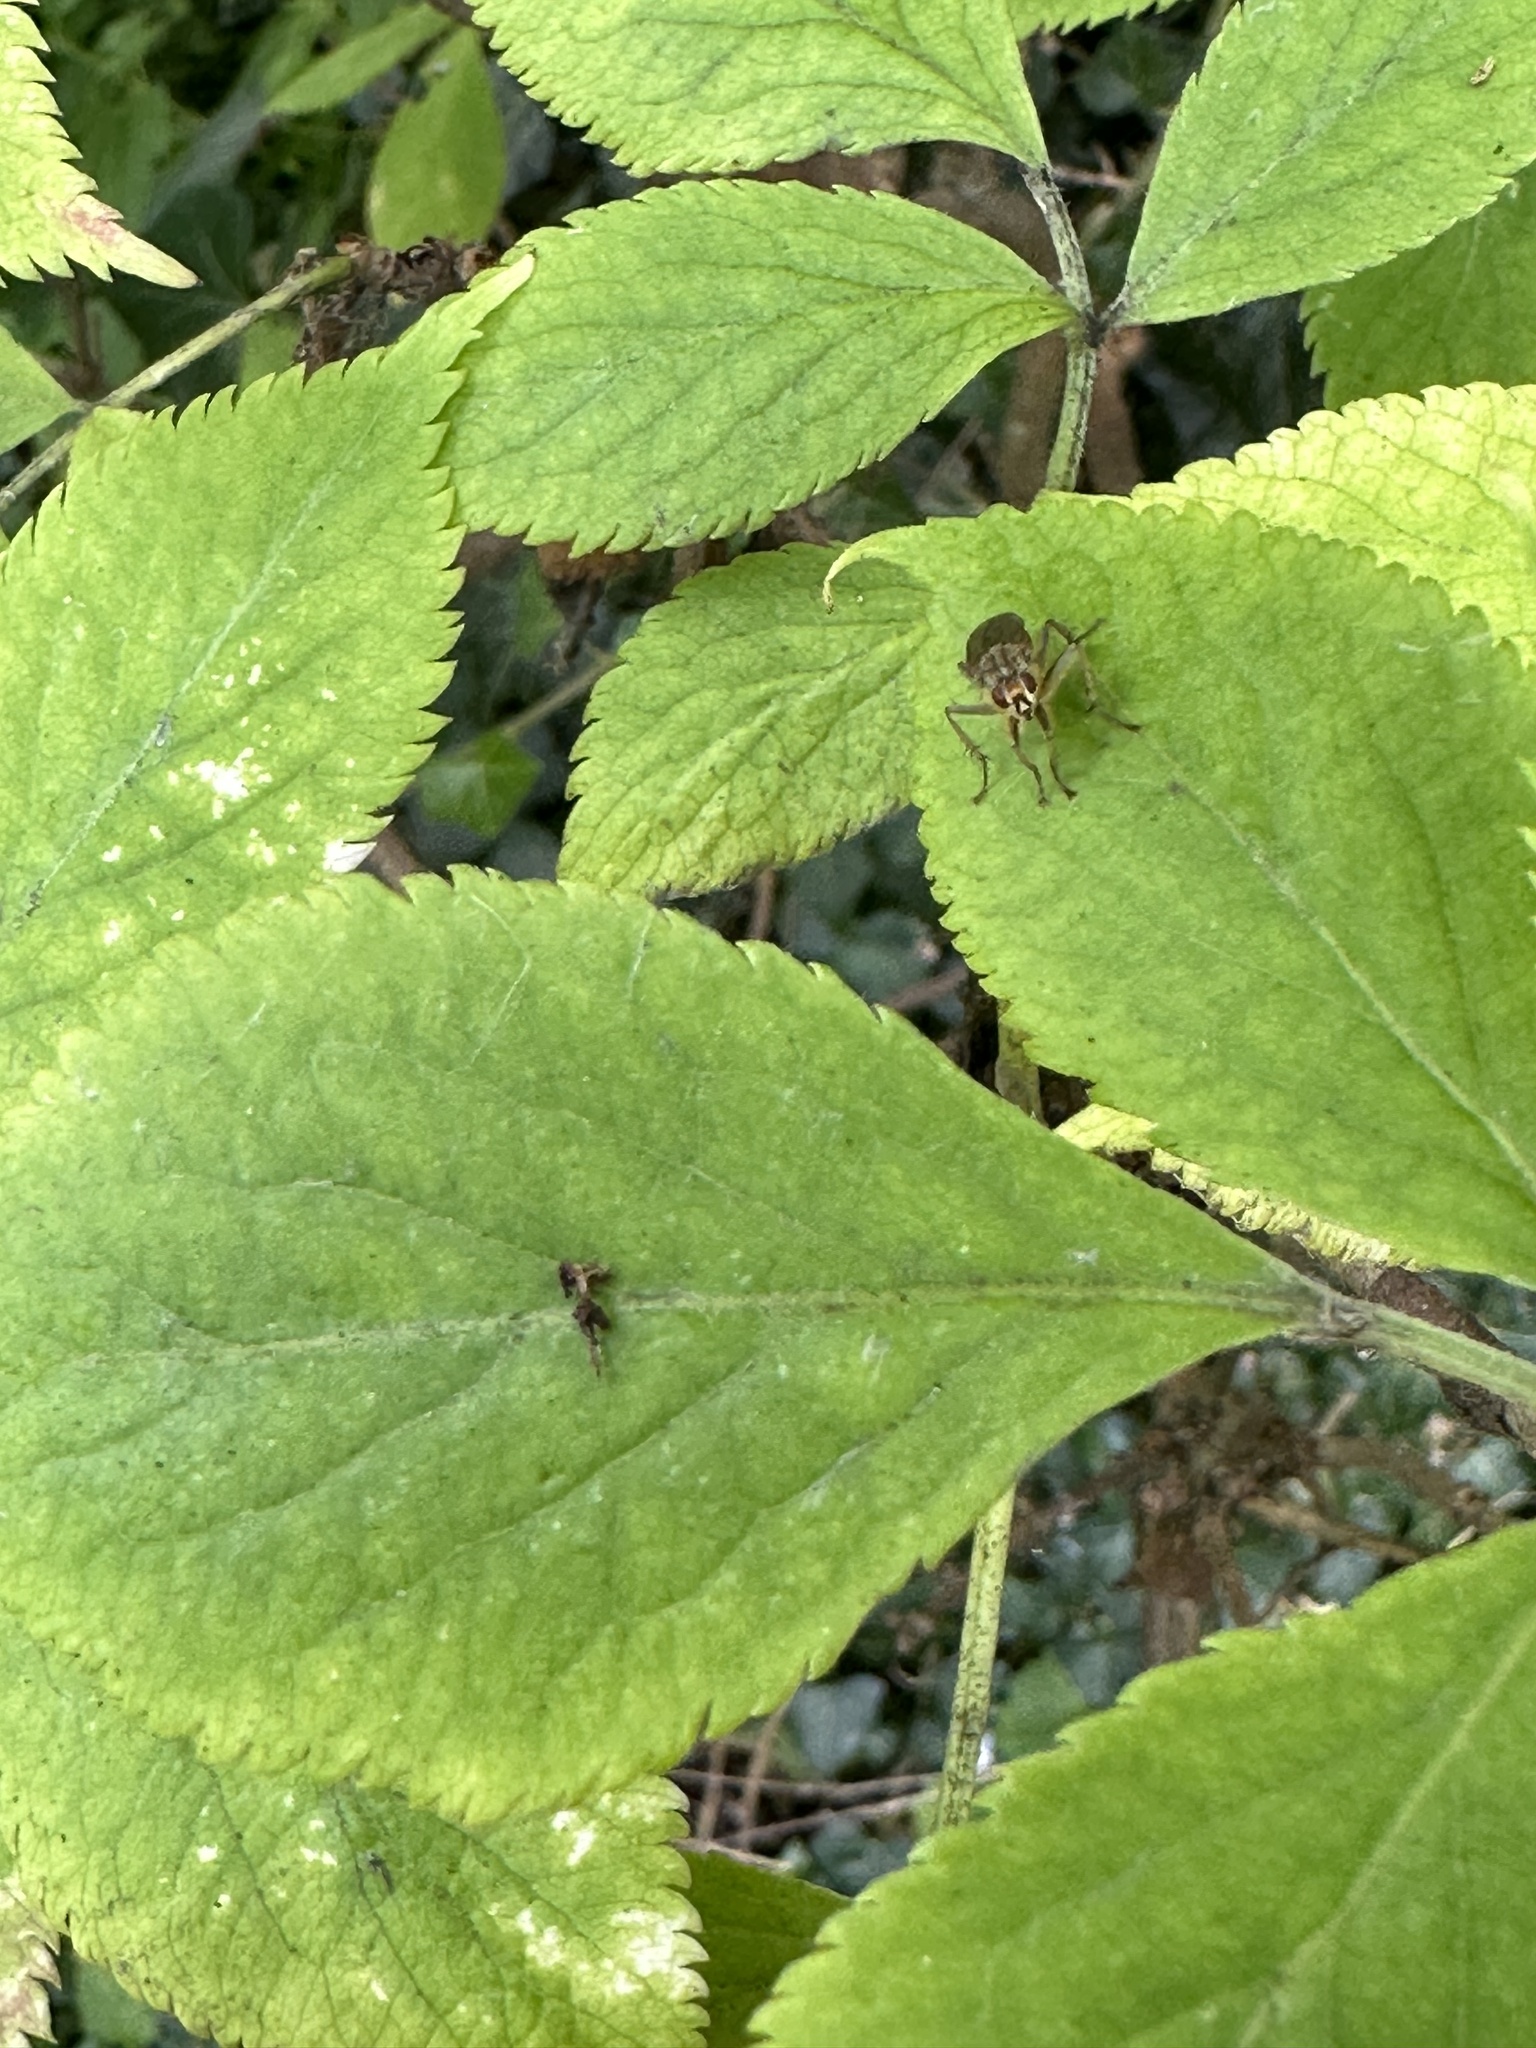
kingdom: Animalia
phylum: Arthropoda
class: Insecta
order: Diptera
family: Scathophagidae
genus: Scathophaga
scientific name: Scathophaga stercoraria
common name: Yellow dung fly
